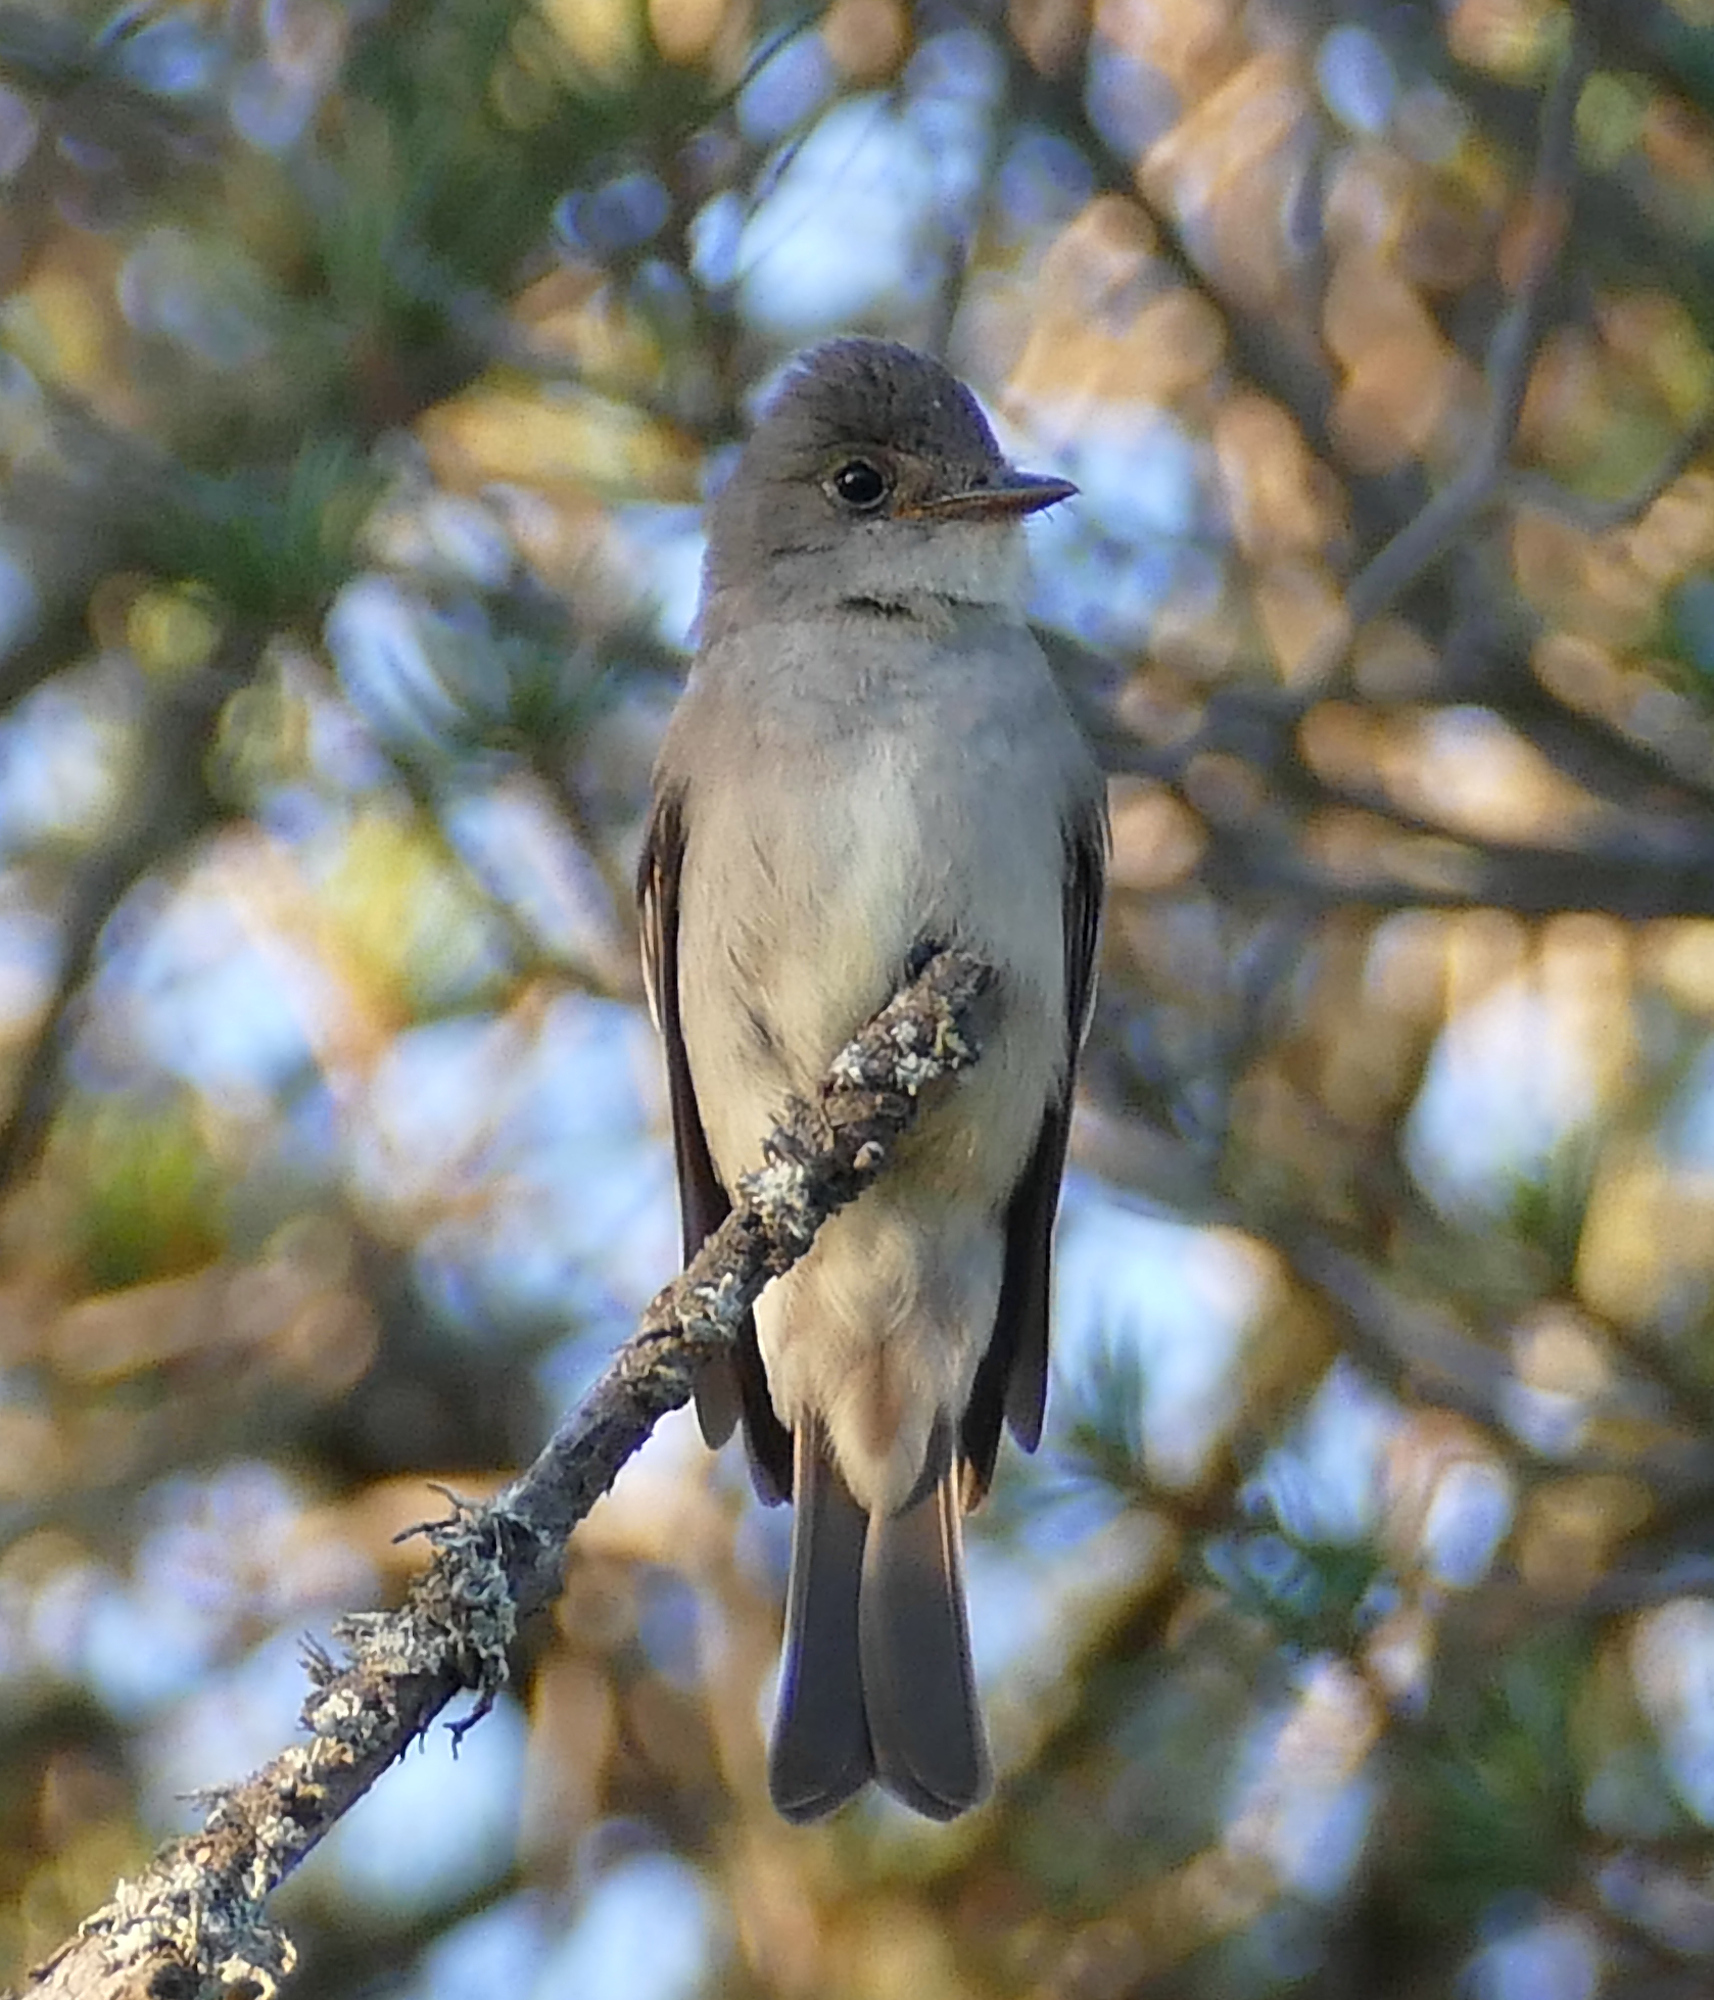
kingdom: Animalia
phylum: Chordata
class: Aves
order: Passeriformes
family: Tyrannidae
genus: Contopus
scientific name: Contopus sordidulus
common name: Western wood-pewee
